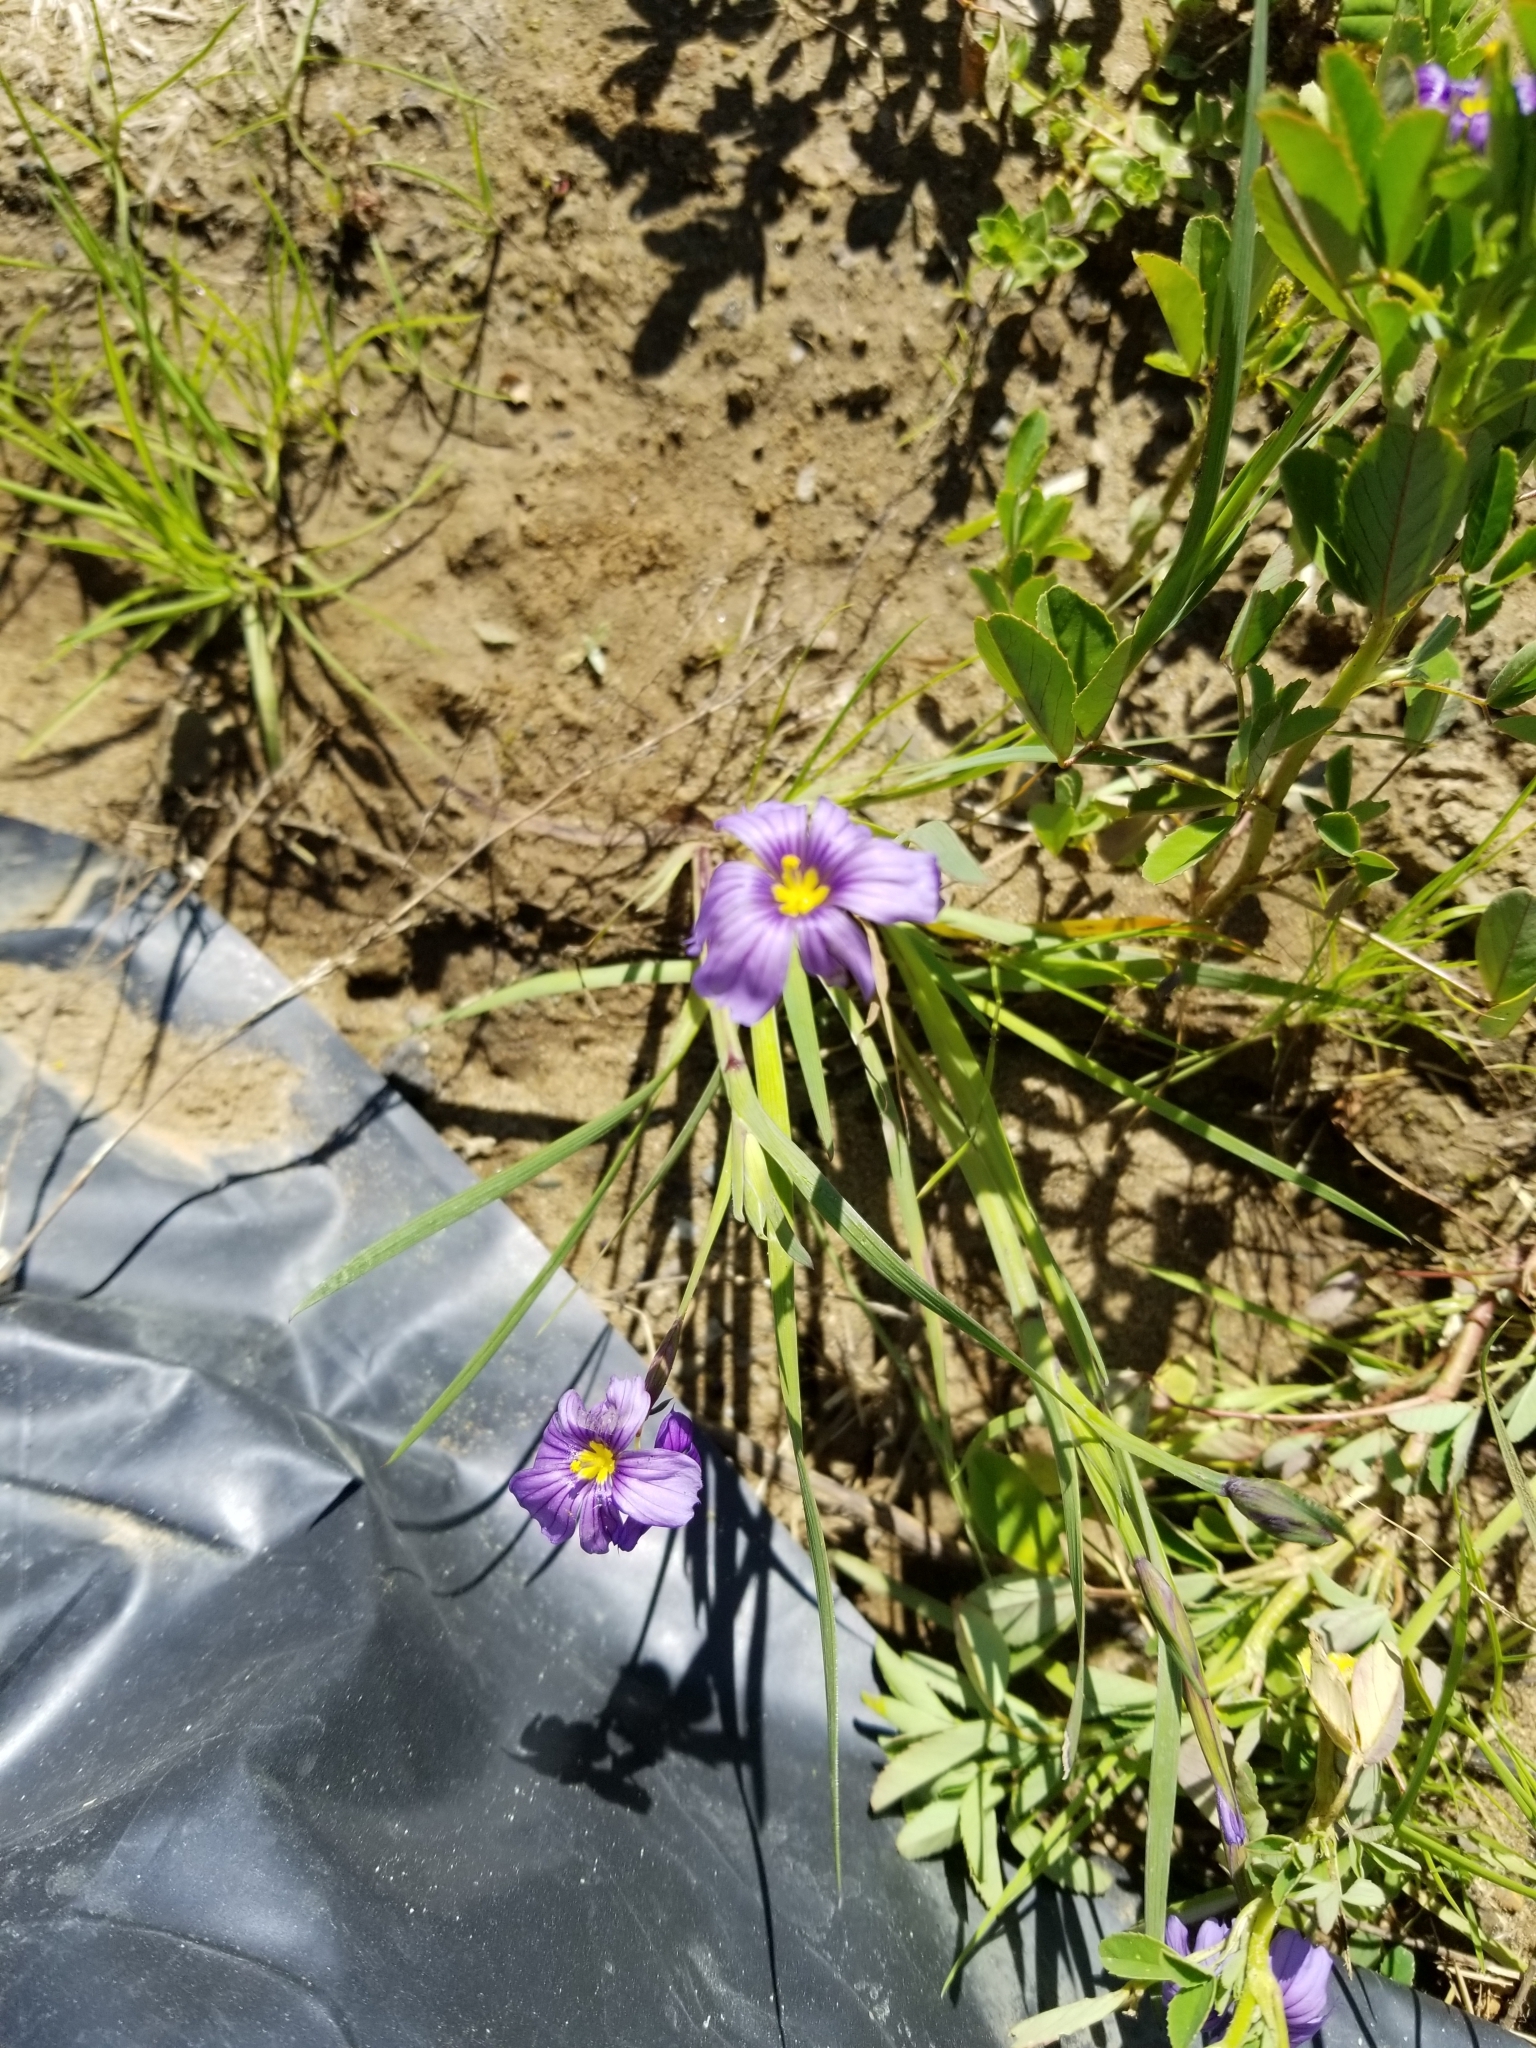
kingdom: Plantae
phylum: Tracheophyta
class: Liliopsida
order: Asparagales
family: Iridaceae
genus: Sisyrinchium
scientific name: Sisyrinchium bellum
